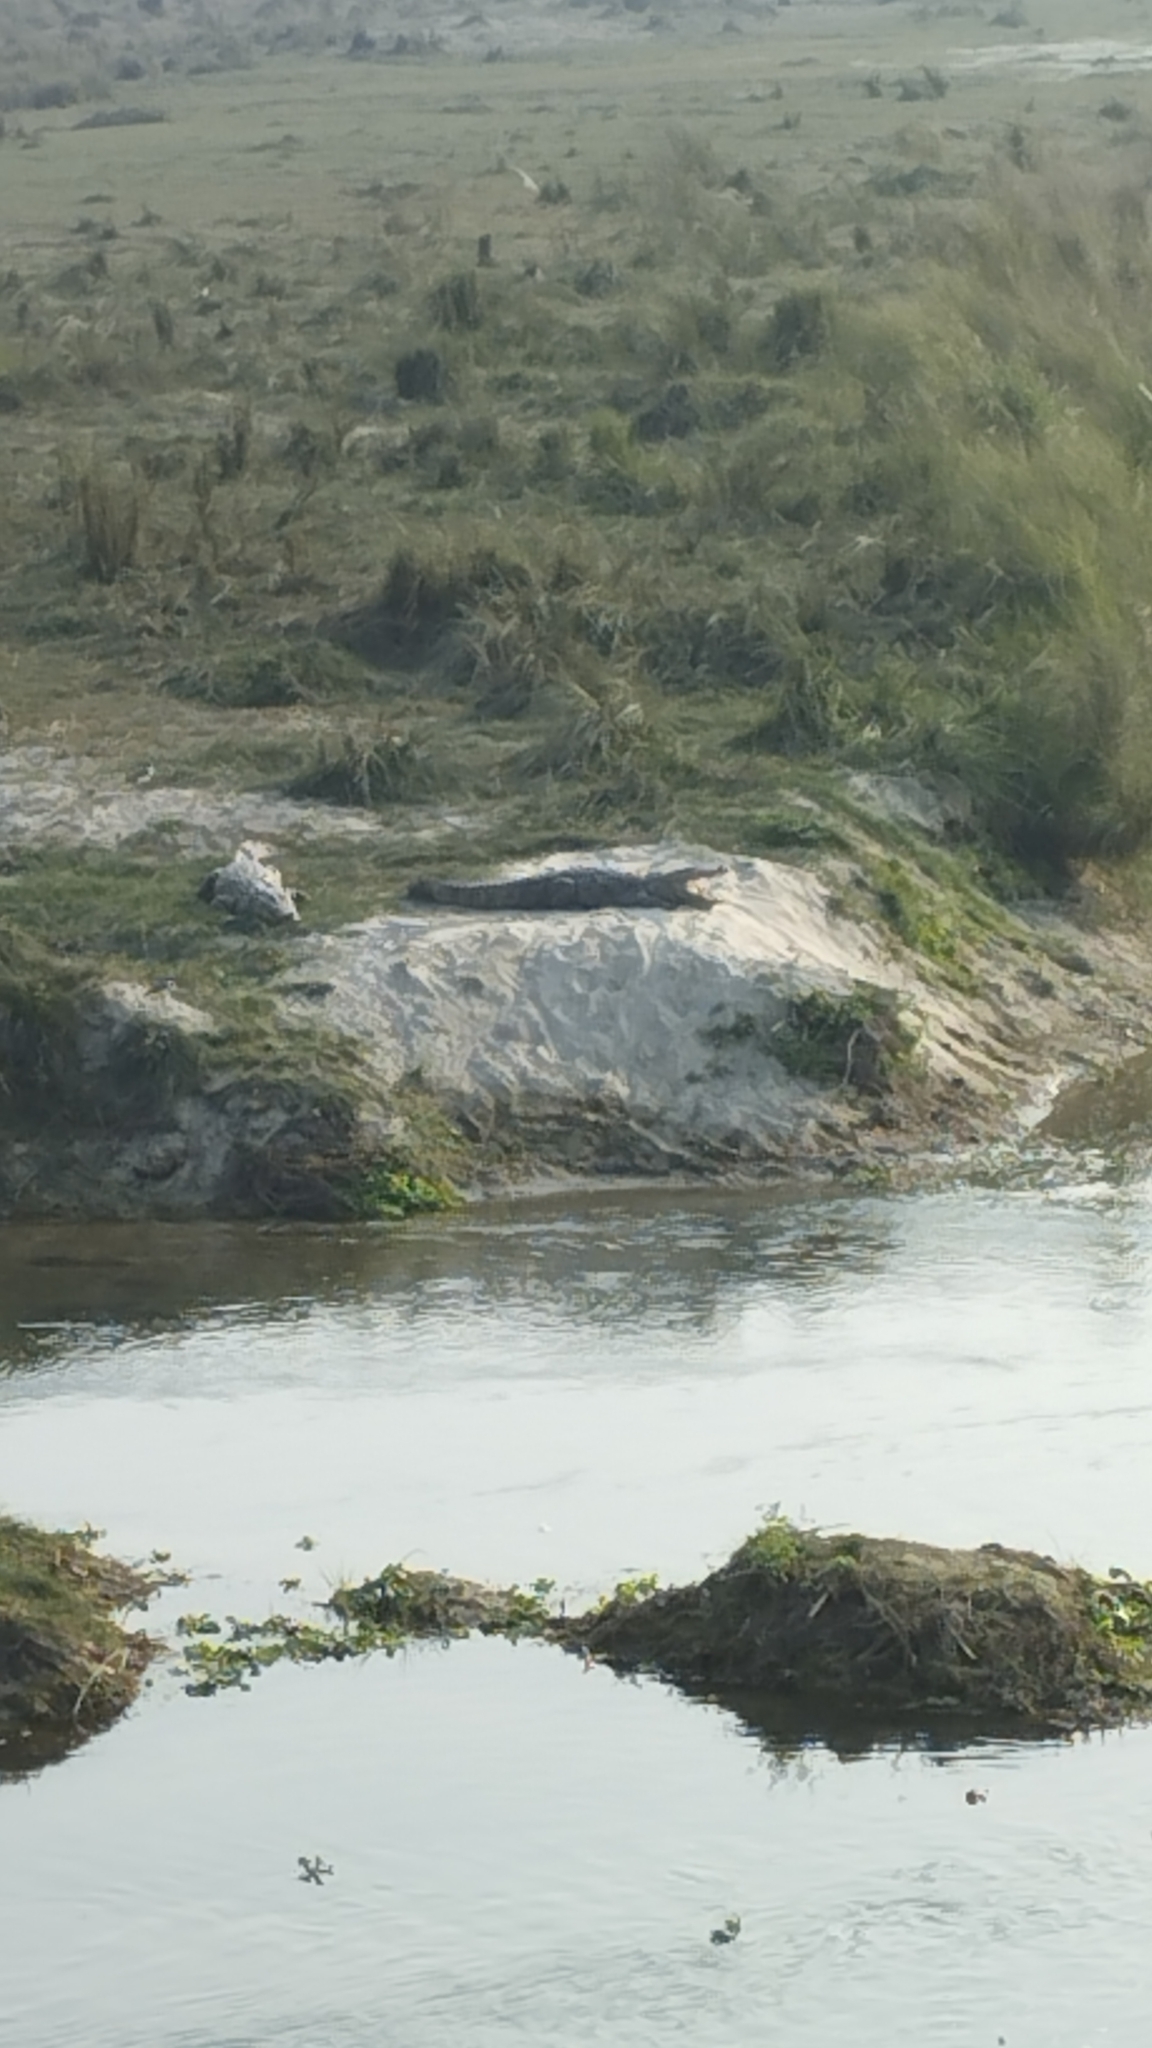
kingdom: Animalia
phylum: Chordata
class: Crocodylia
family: Crocodylidae
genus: Crocodylus
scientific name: Crocodylus palustris
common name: Mugger crocodile
